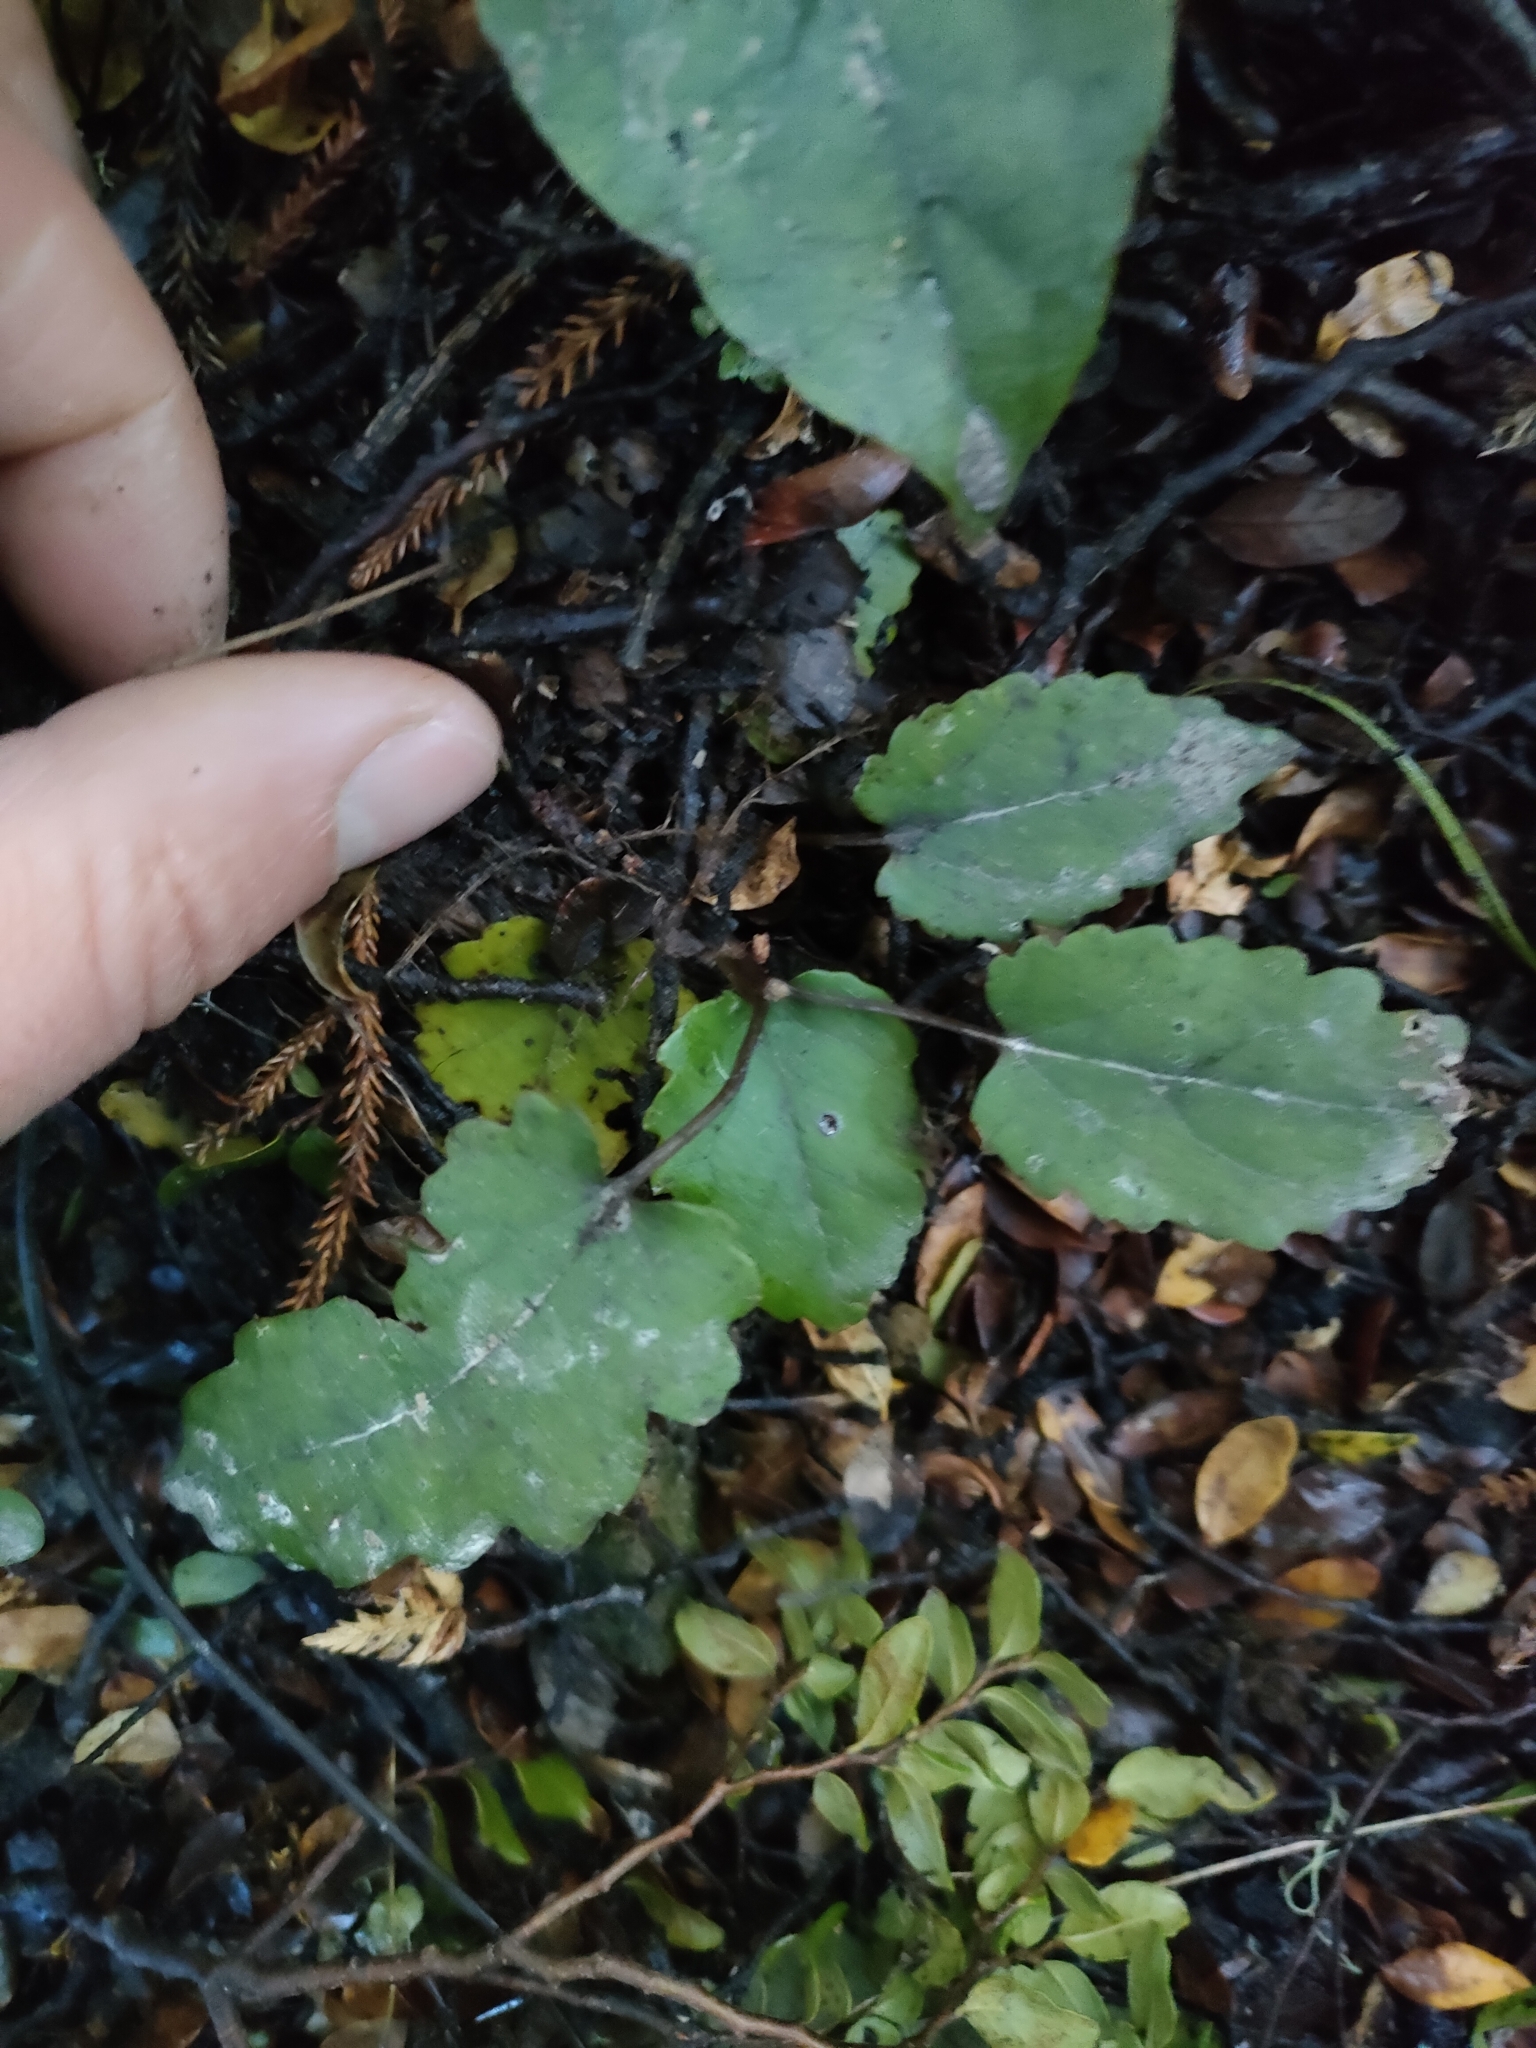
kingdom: Plantae
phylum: Tracheophyta
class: Magnoliopsida
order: Ranunculales
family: Ranunculaceae
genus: Clematis
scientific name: Clematis paniculata
